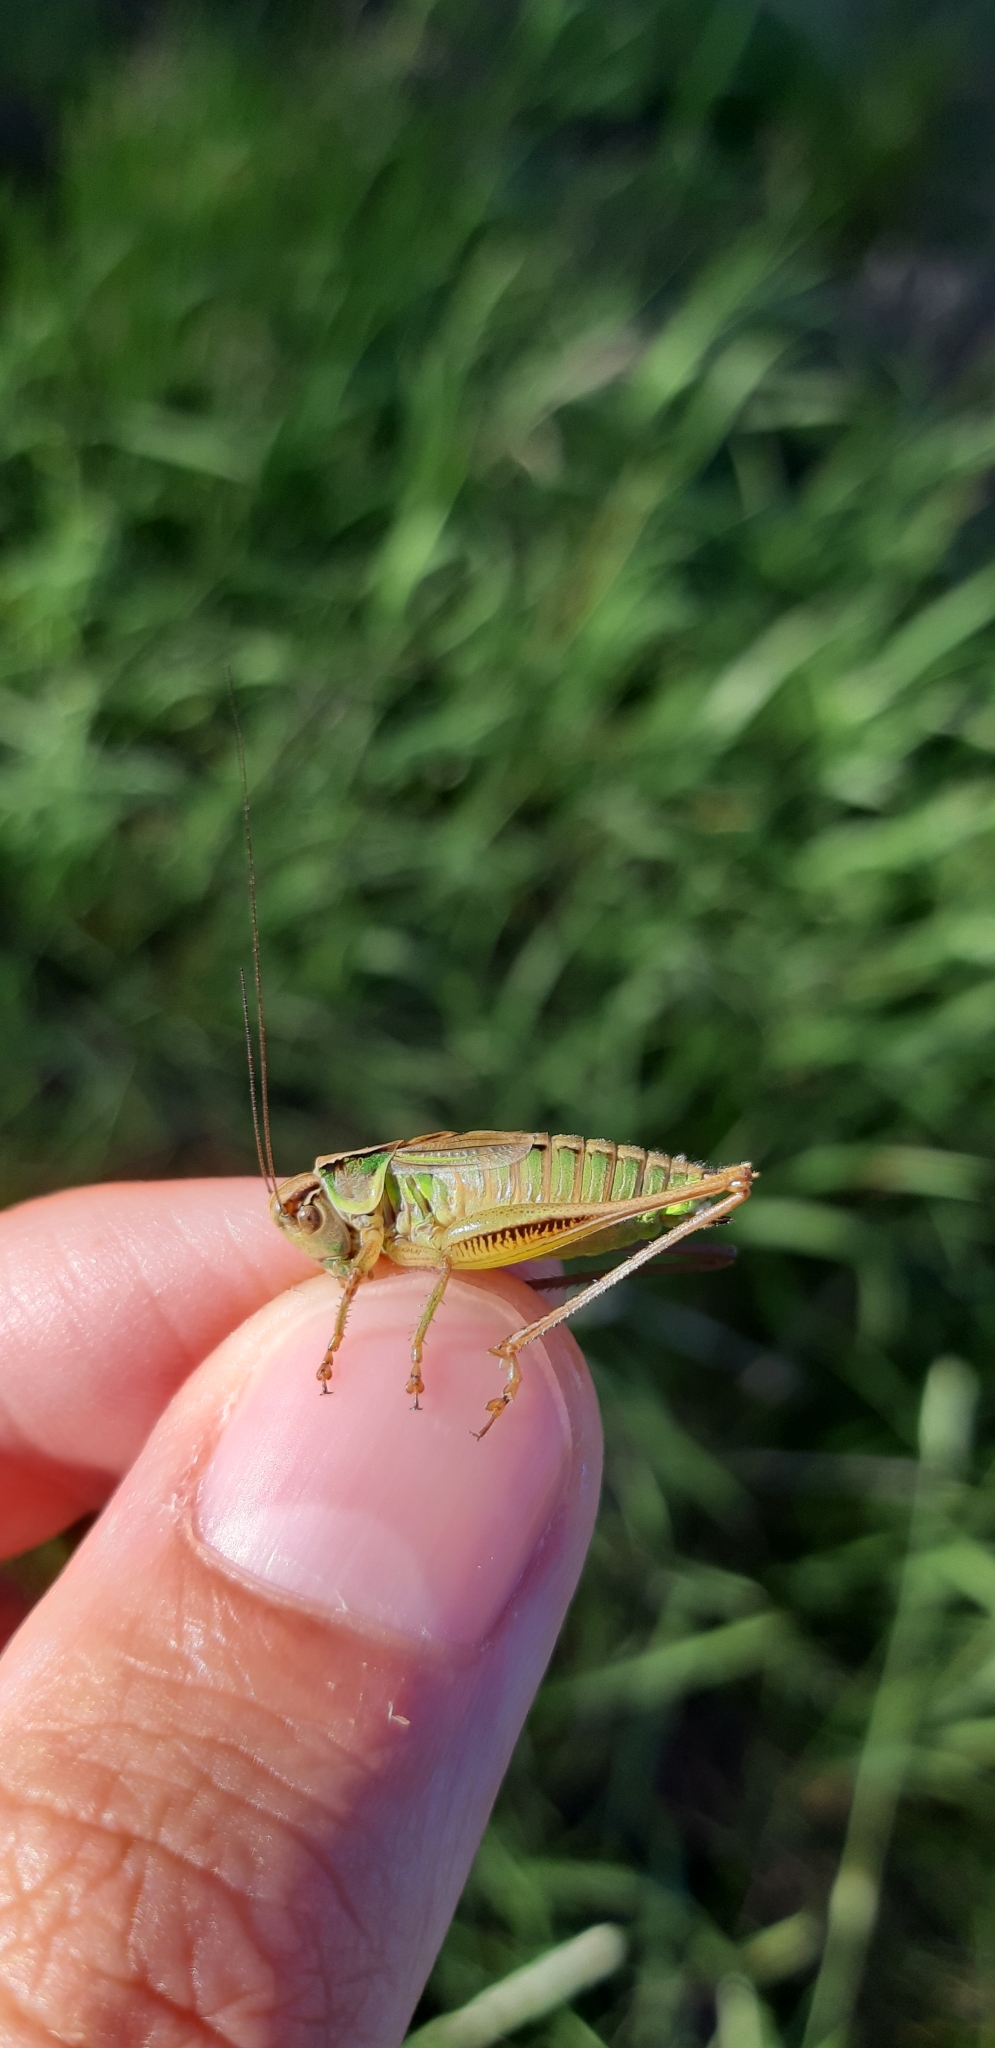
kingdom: Animalia
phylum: Arthropoda
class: Insecta
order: Orthoptera
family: Tettigoniidae
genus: Roeseliana
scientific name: Roeseliana roeselii
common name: Roesel's bush cricket
